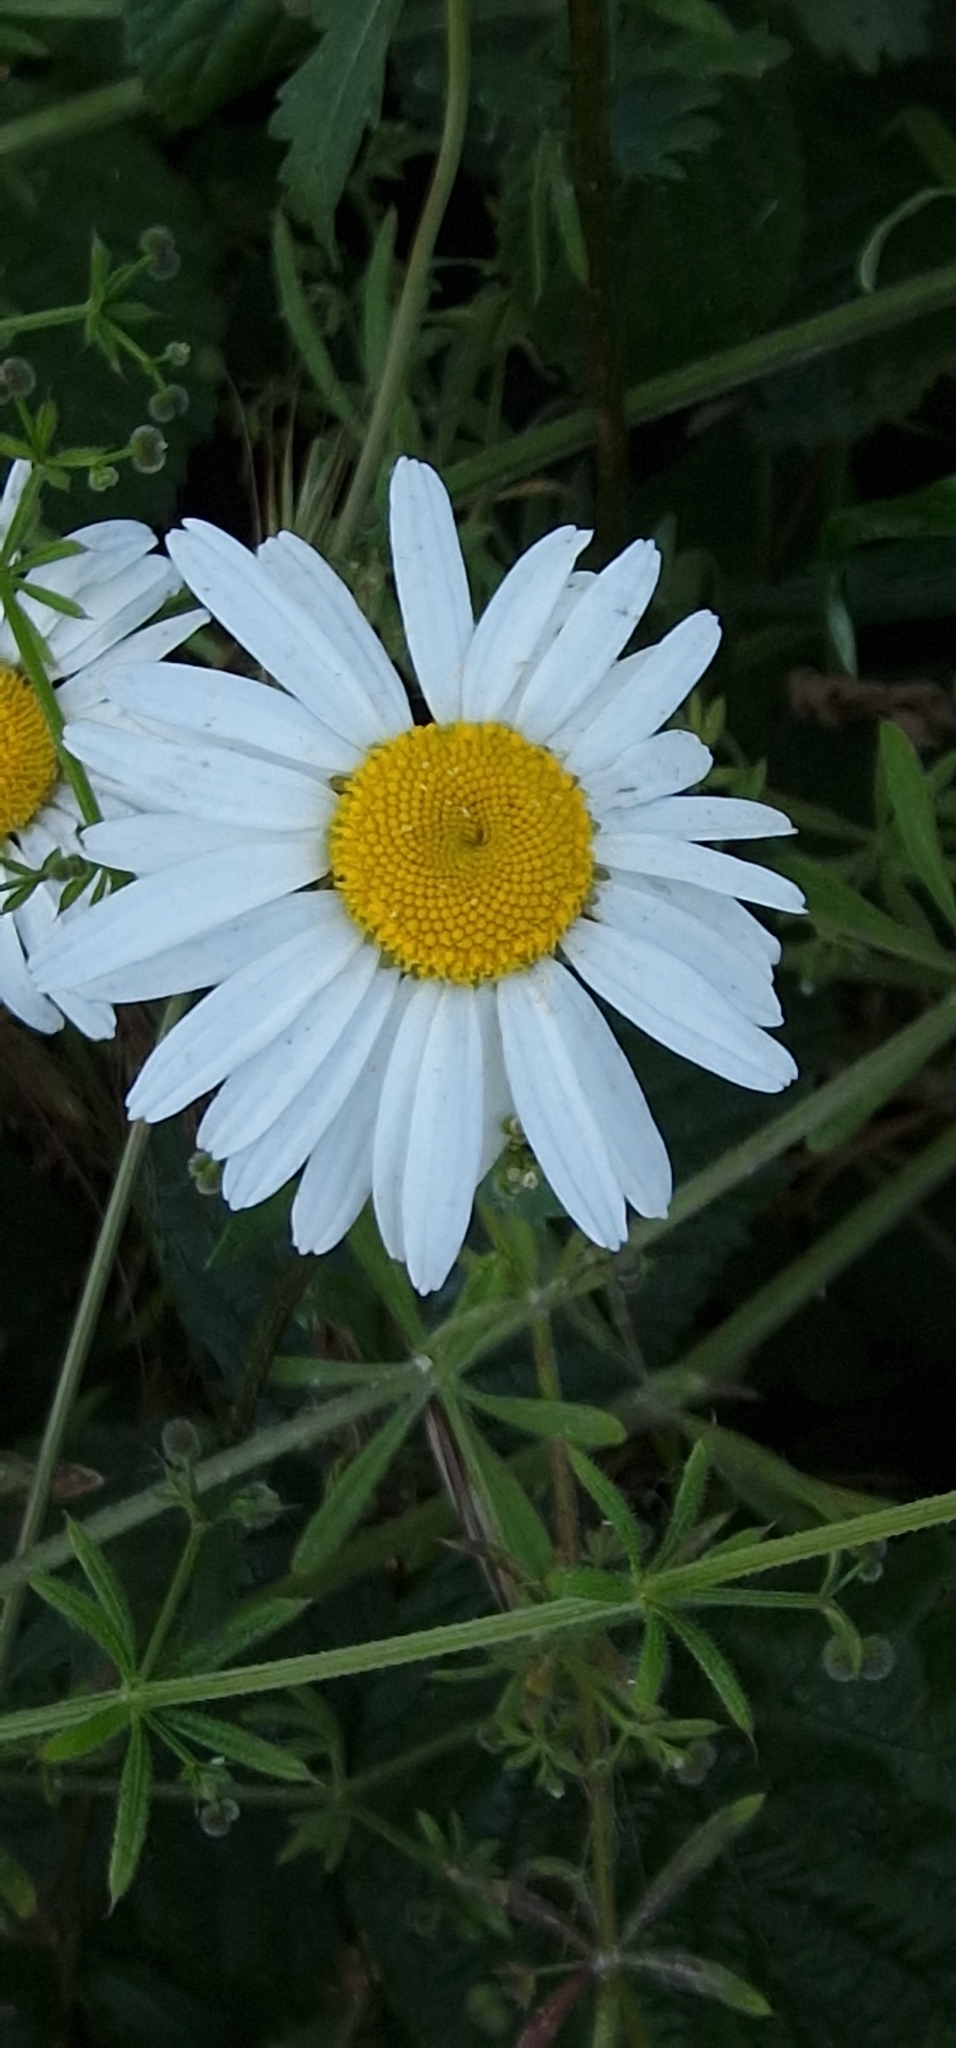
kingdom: Plantae
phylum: Tracheophyta
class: Magnoliopsida
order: Asterales
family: Asteraceae
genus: Leucanthemum
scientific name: Leucanthemum vulgare
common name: Oxeye daisy
